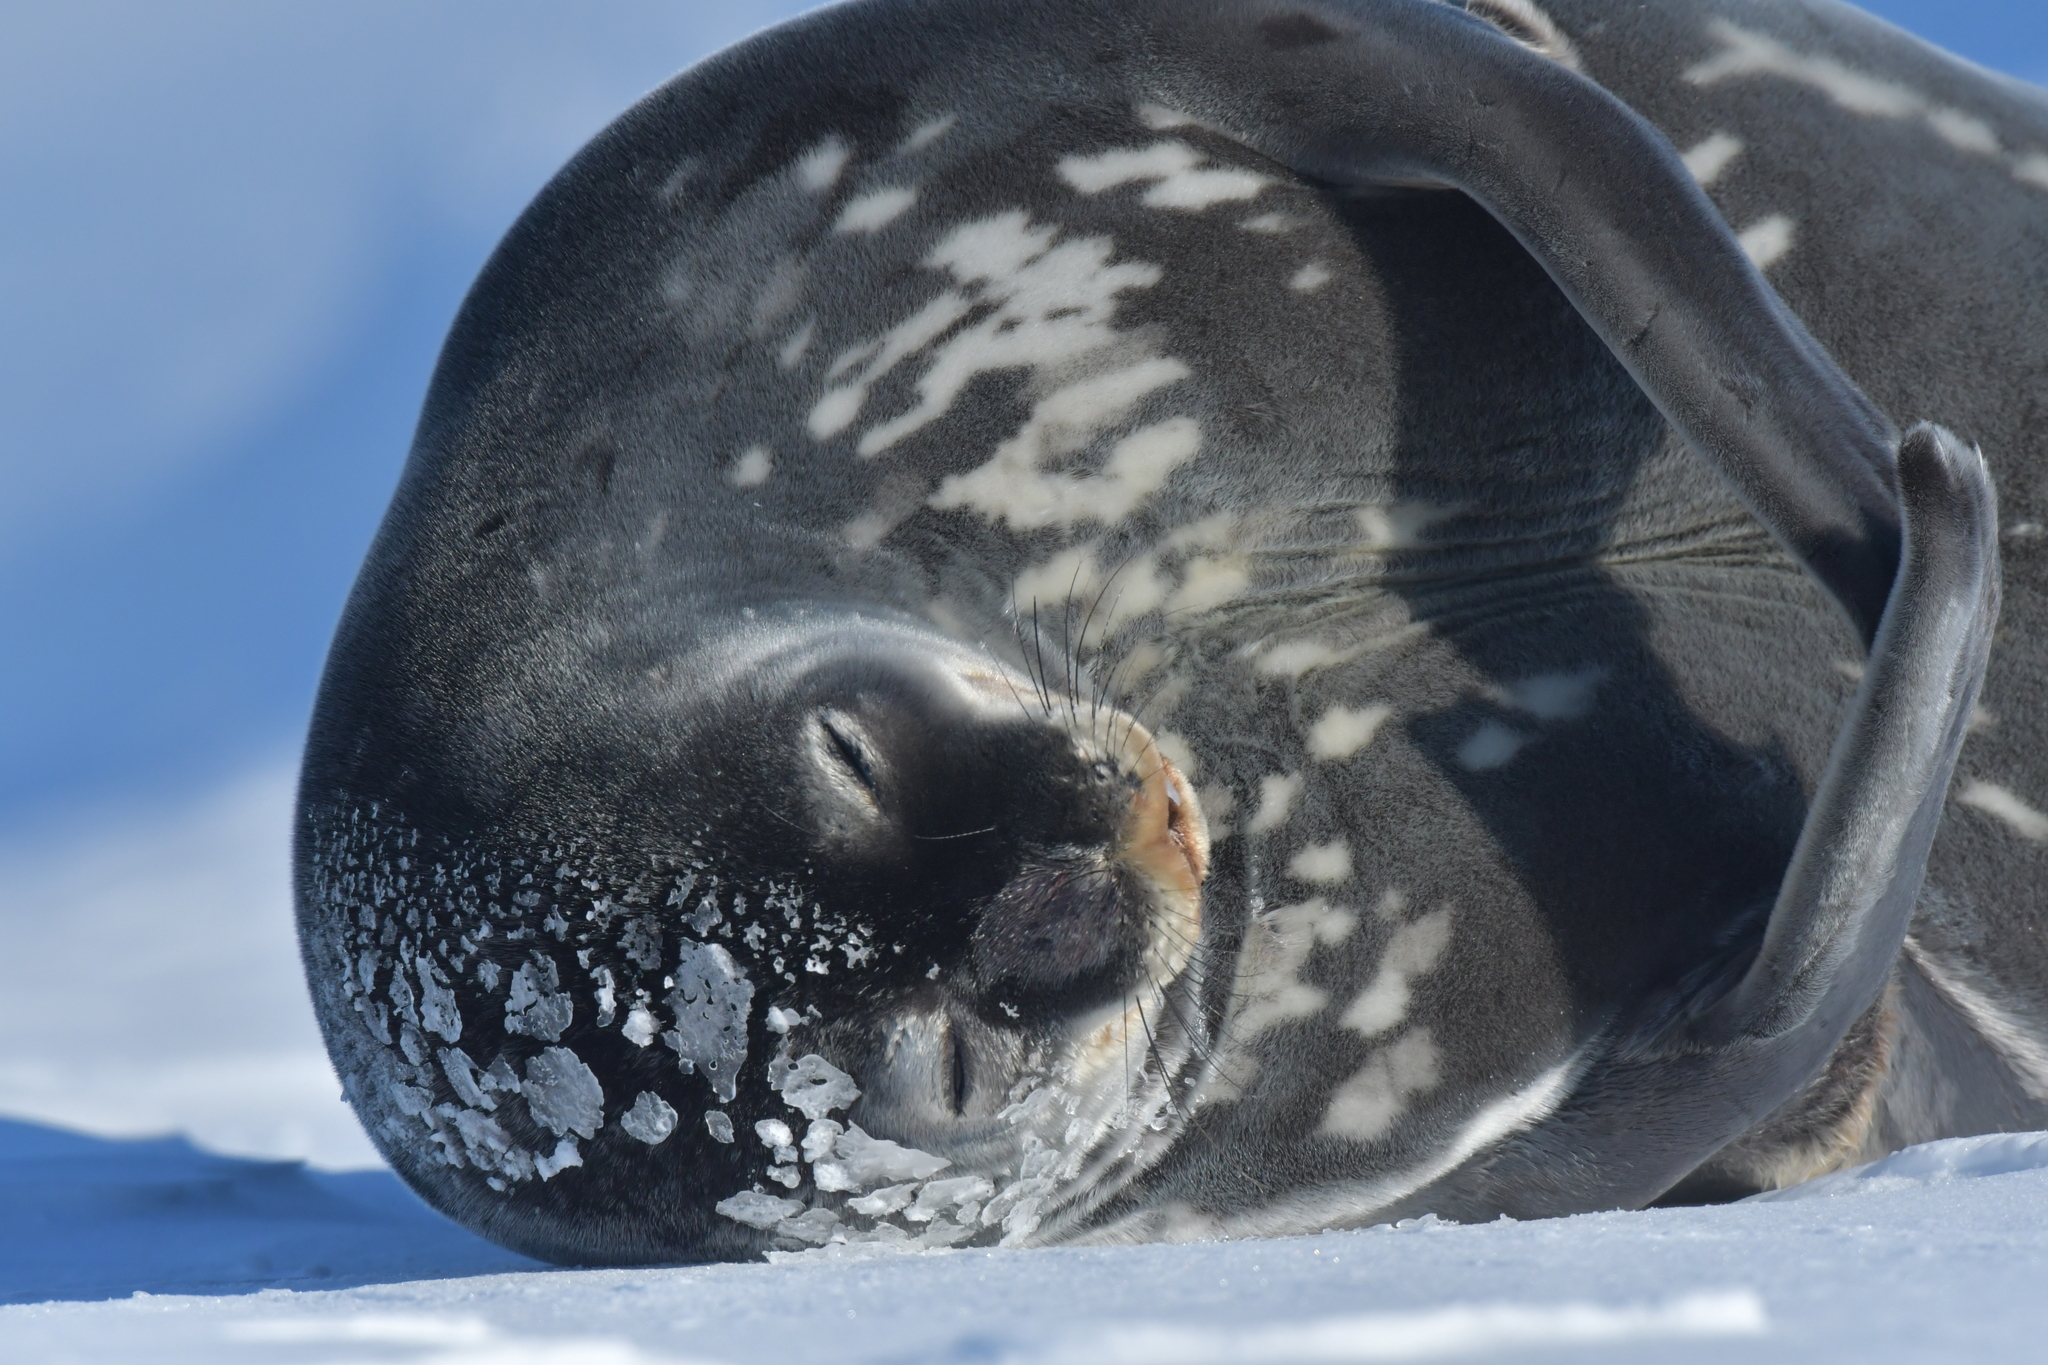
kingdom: Animalia
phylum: Chordata
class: Mammalia
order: Carnivora
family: Phocidae
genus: Leptonychotes
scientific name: Leptonychotes weddellii
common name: Weddell seal
